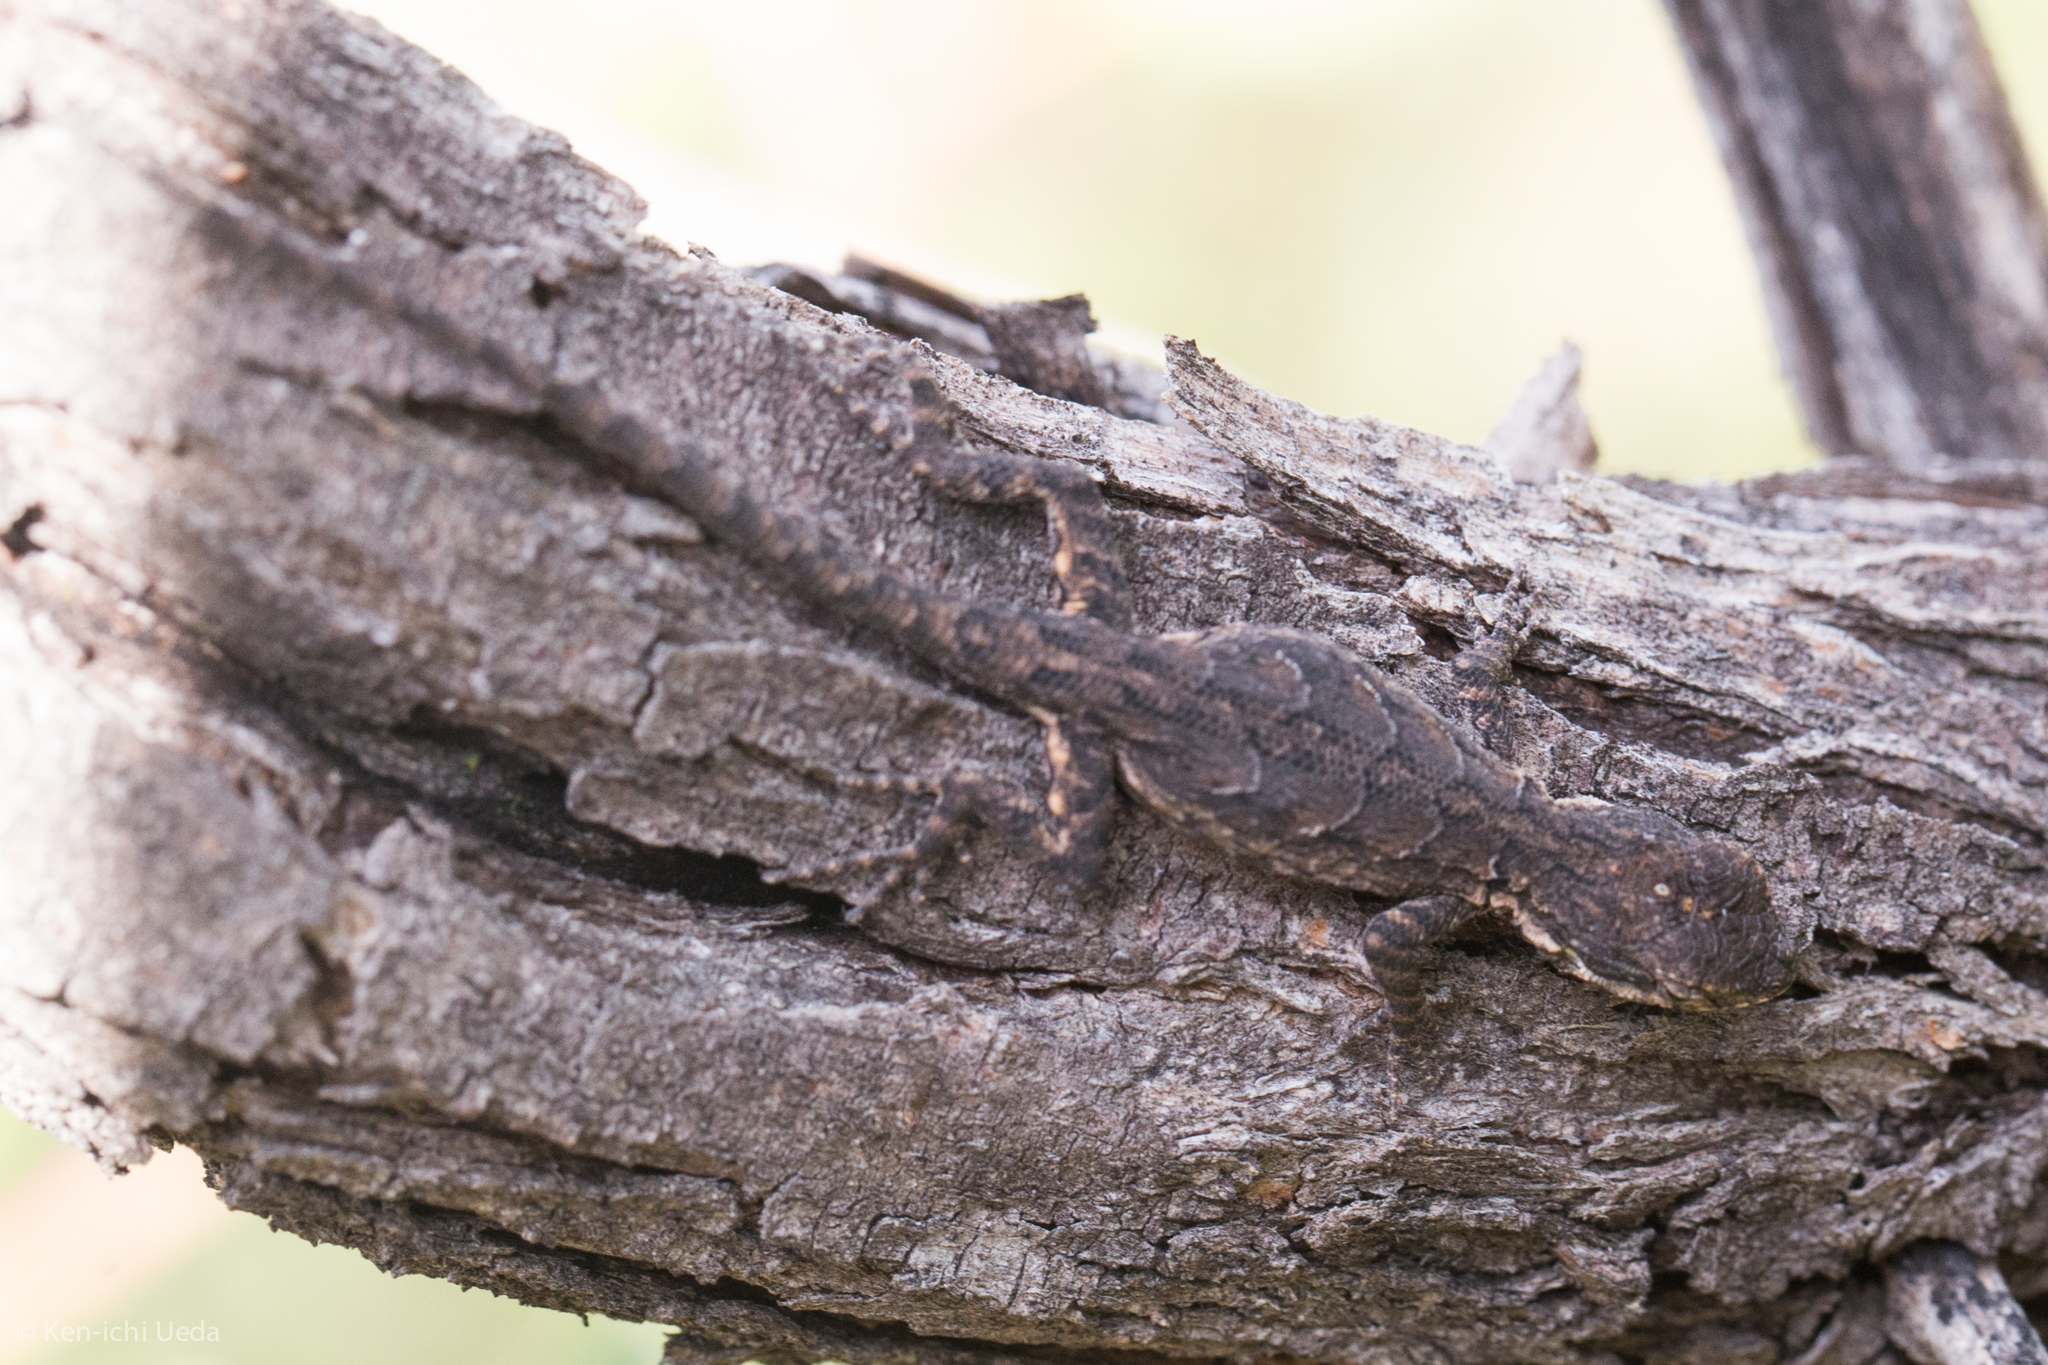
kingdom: Animalia
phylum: Chordata
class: Squamata
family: Phrynosomatidae
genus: Urosaurus
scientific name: Urosaurus ornatus
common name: Ornate tree lizard
